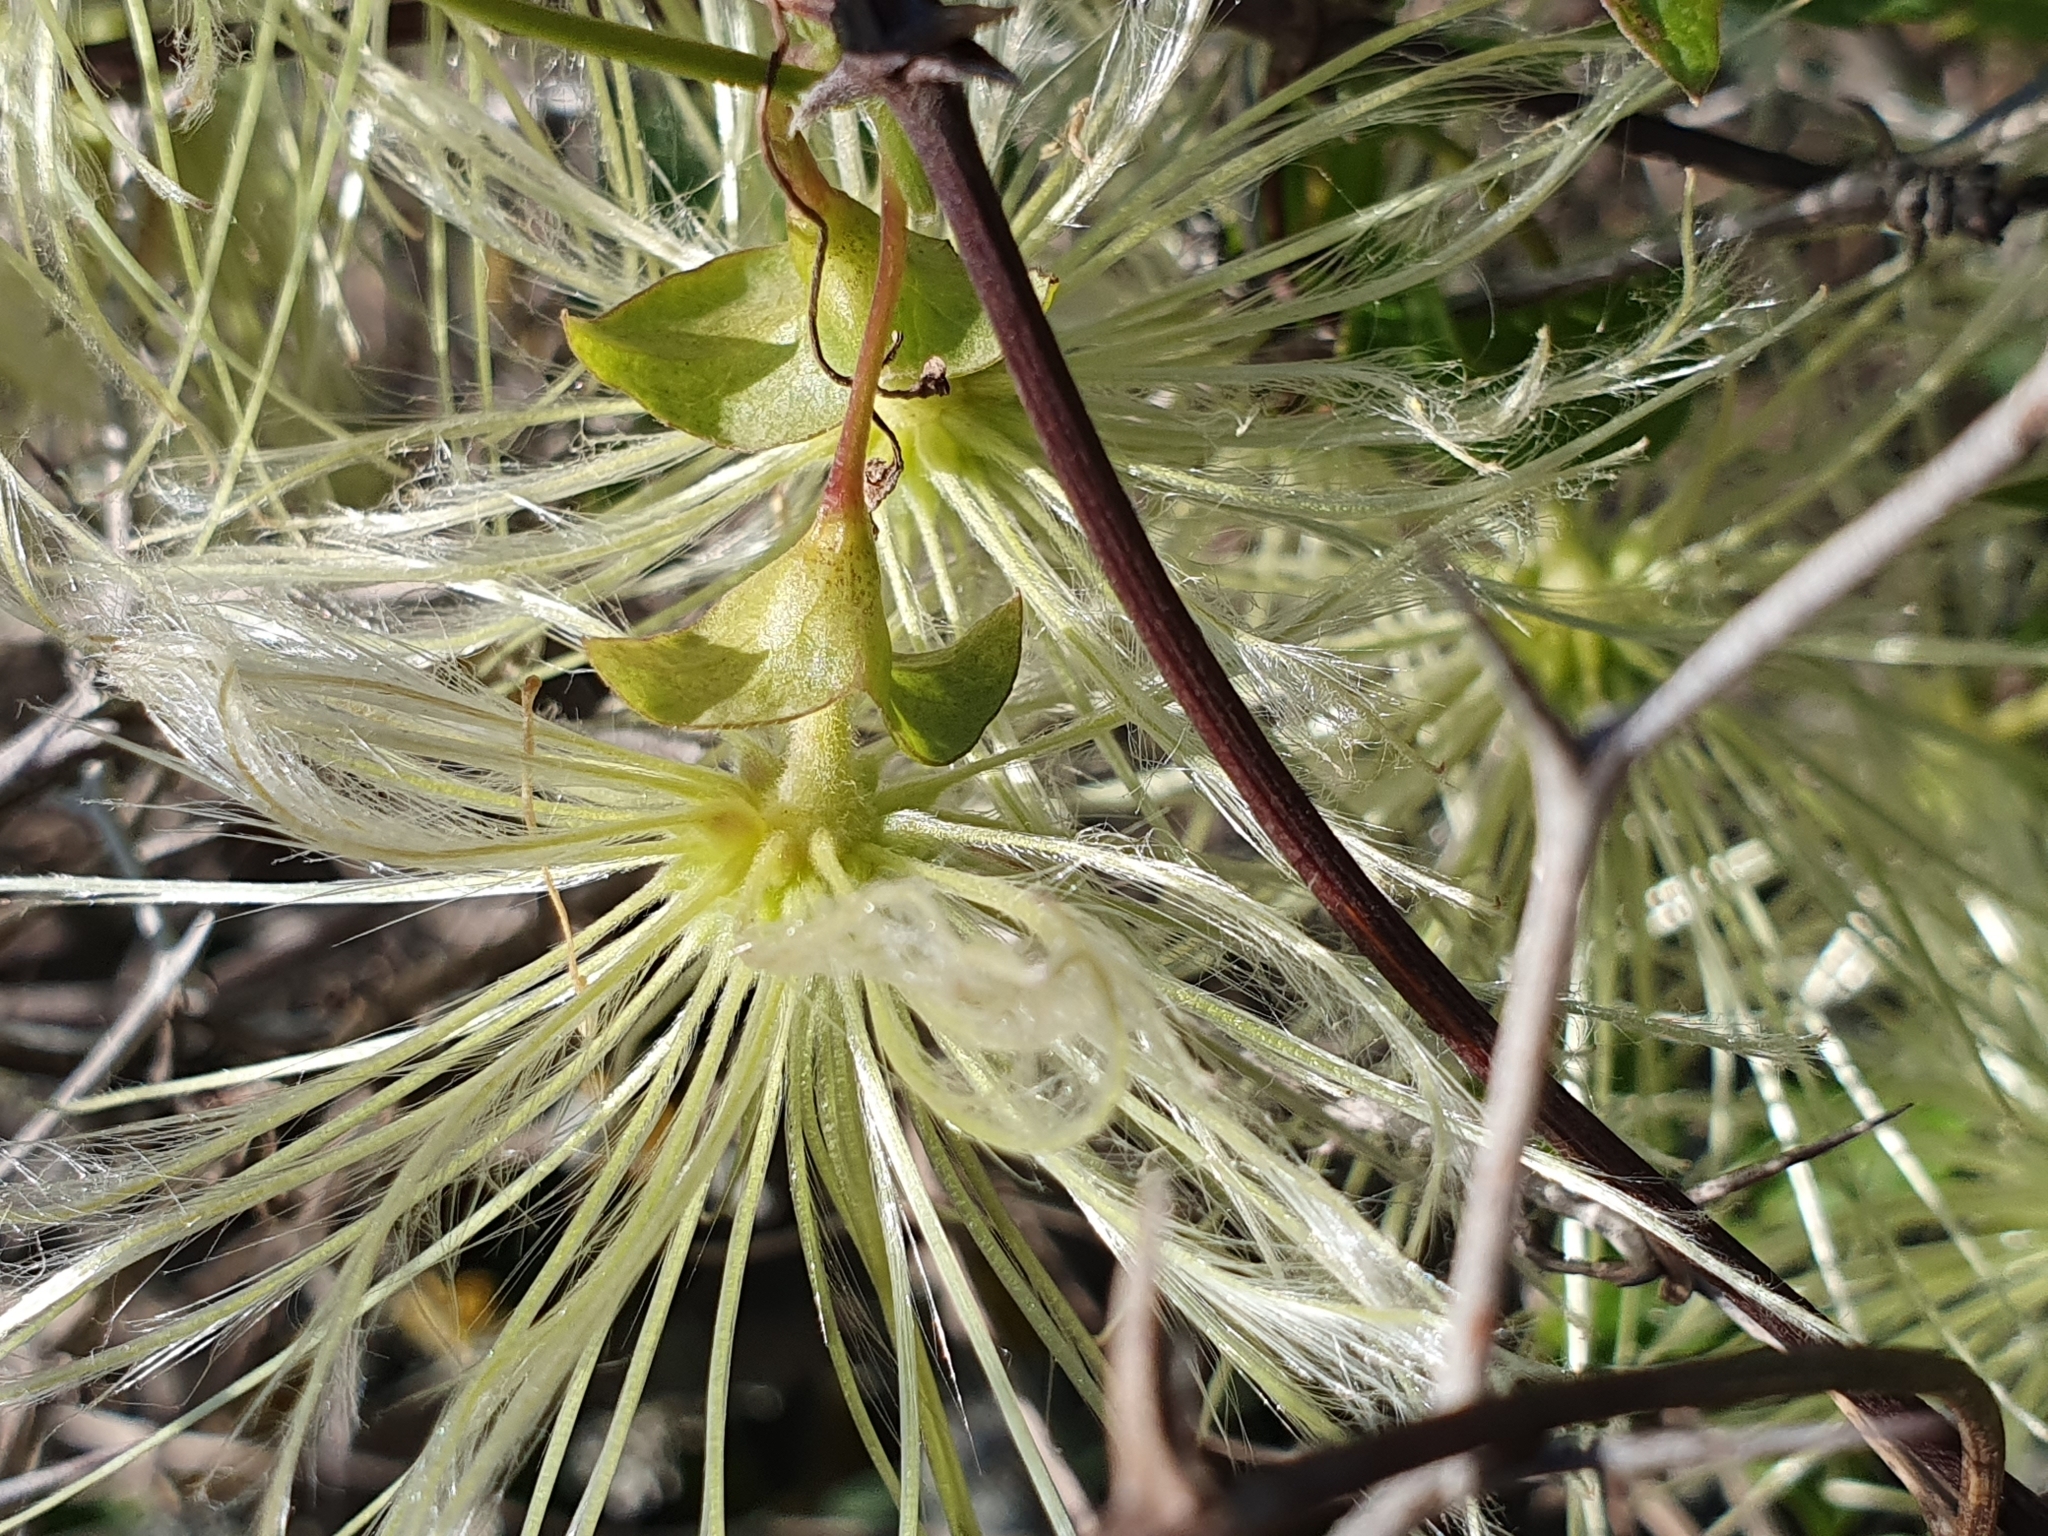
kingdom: Plantae
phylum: Tracheophyta
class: Magnoliopsida
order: Ranunculales
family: Ranunculaceae
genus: Clematis
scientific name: Clematis cirrhosa
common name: Early virgin's-bower
